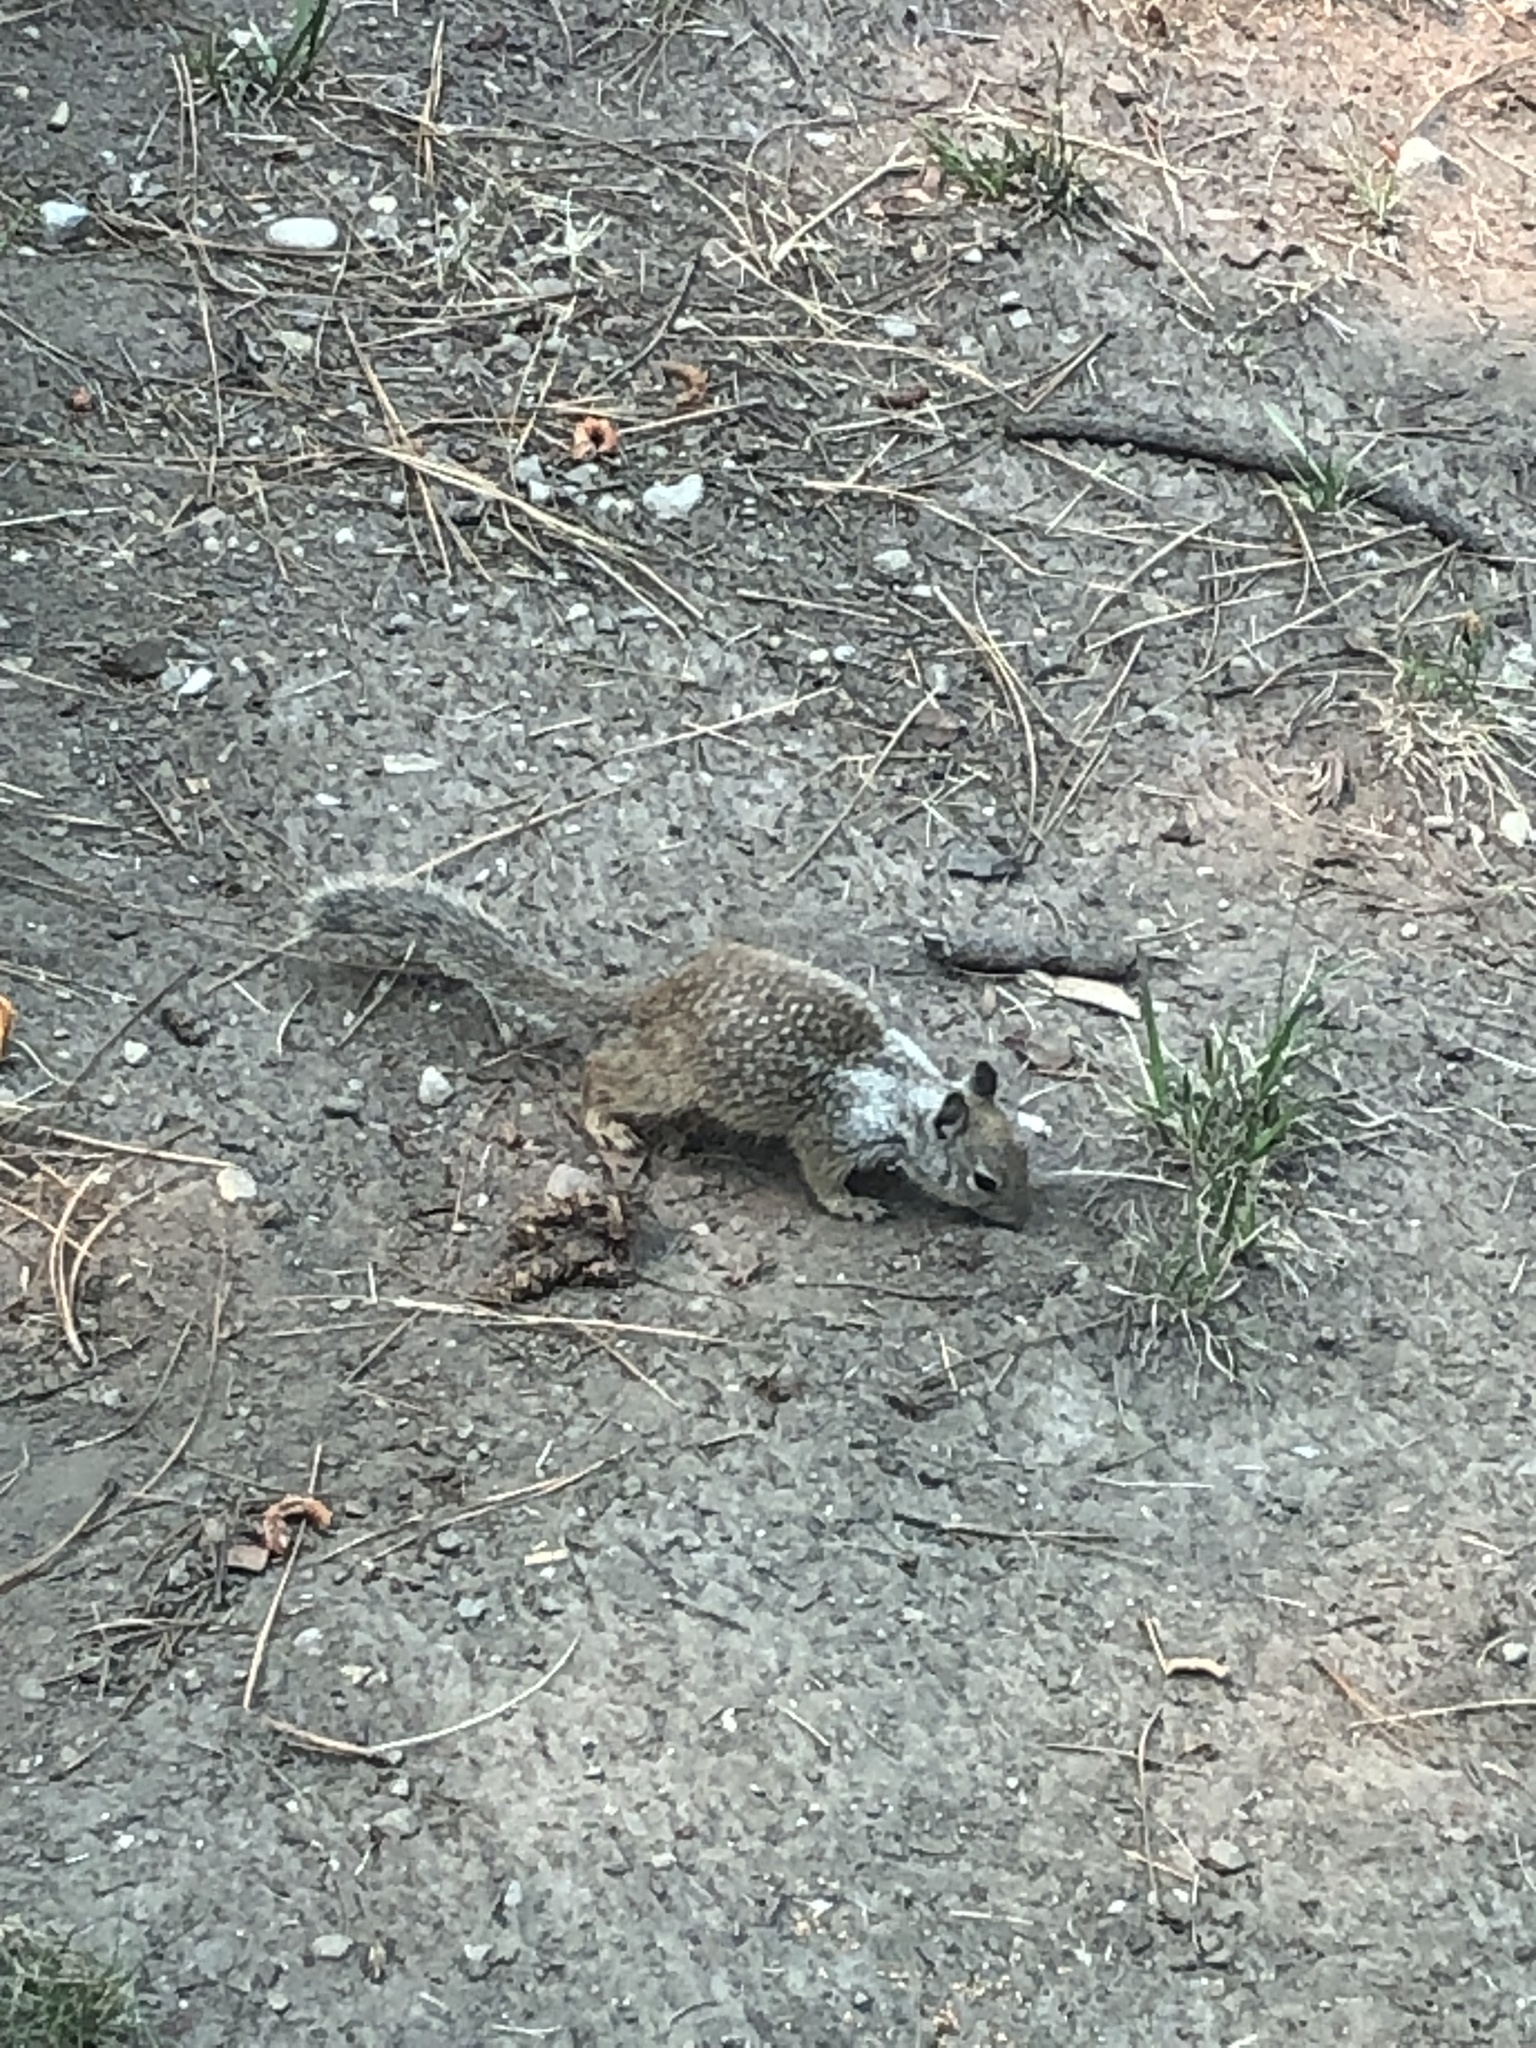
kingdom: Animalia
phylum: Chordata
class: Mammalia
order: Rodentia
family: Sciuridae
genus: Otospermophilus
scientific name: Otospermophilus beecheyi
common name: California ground squirrel
